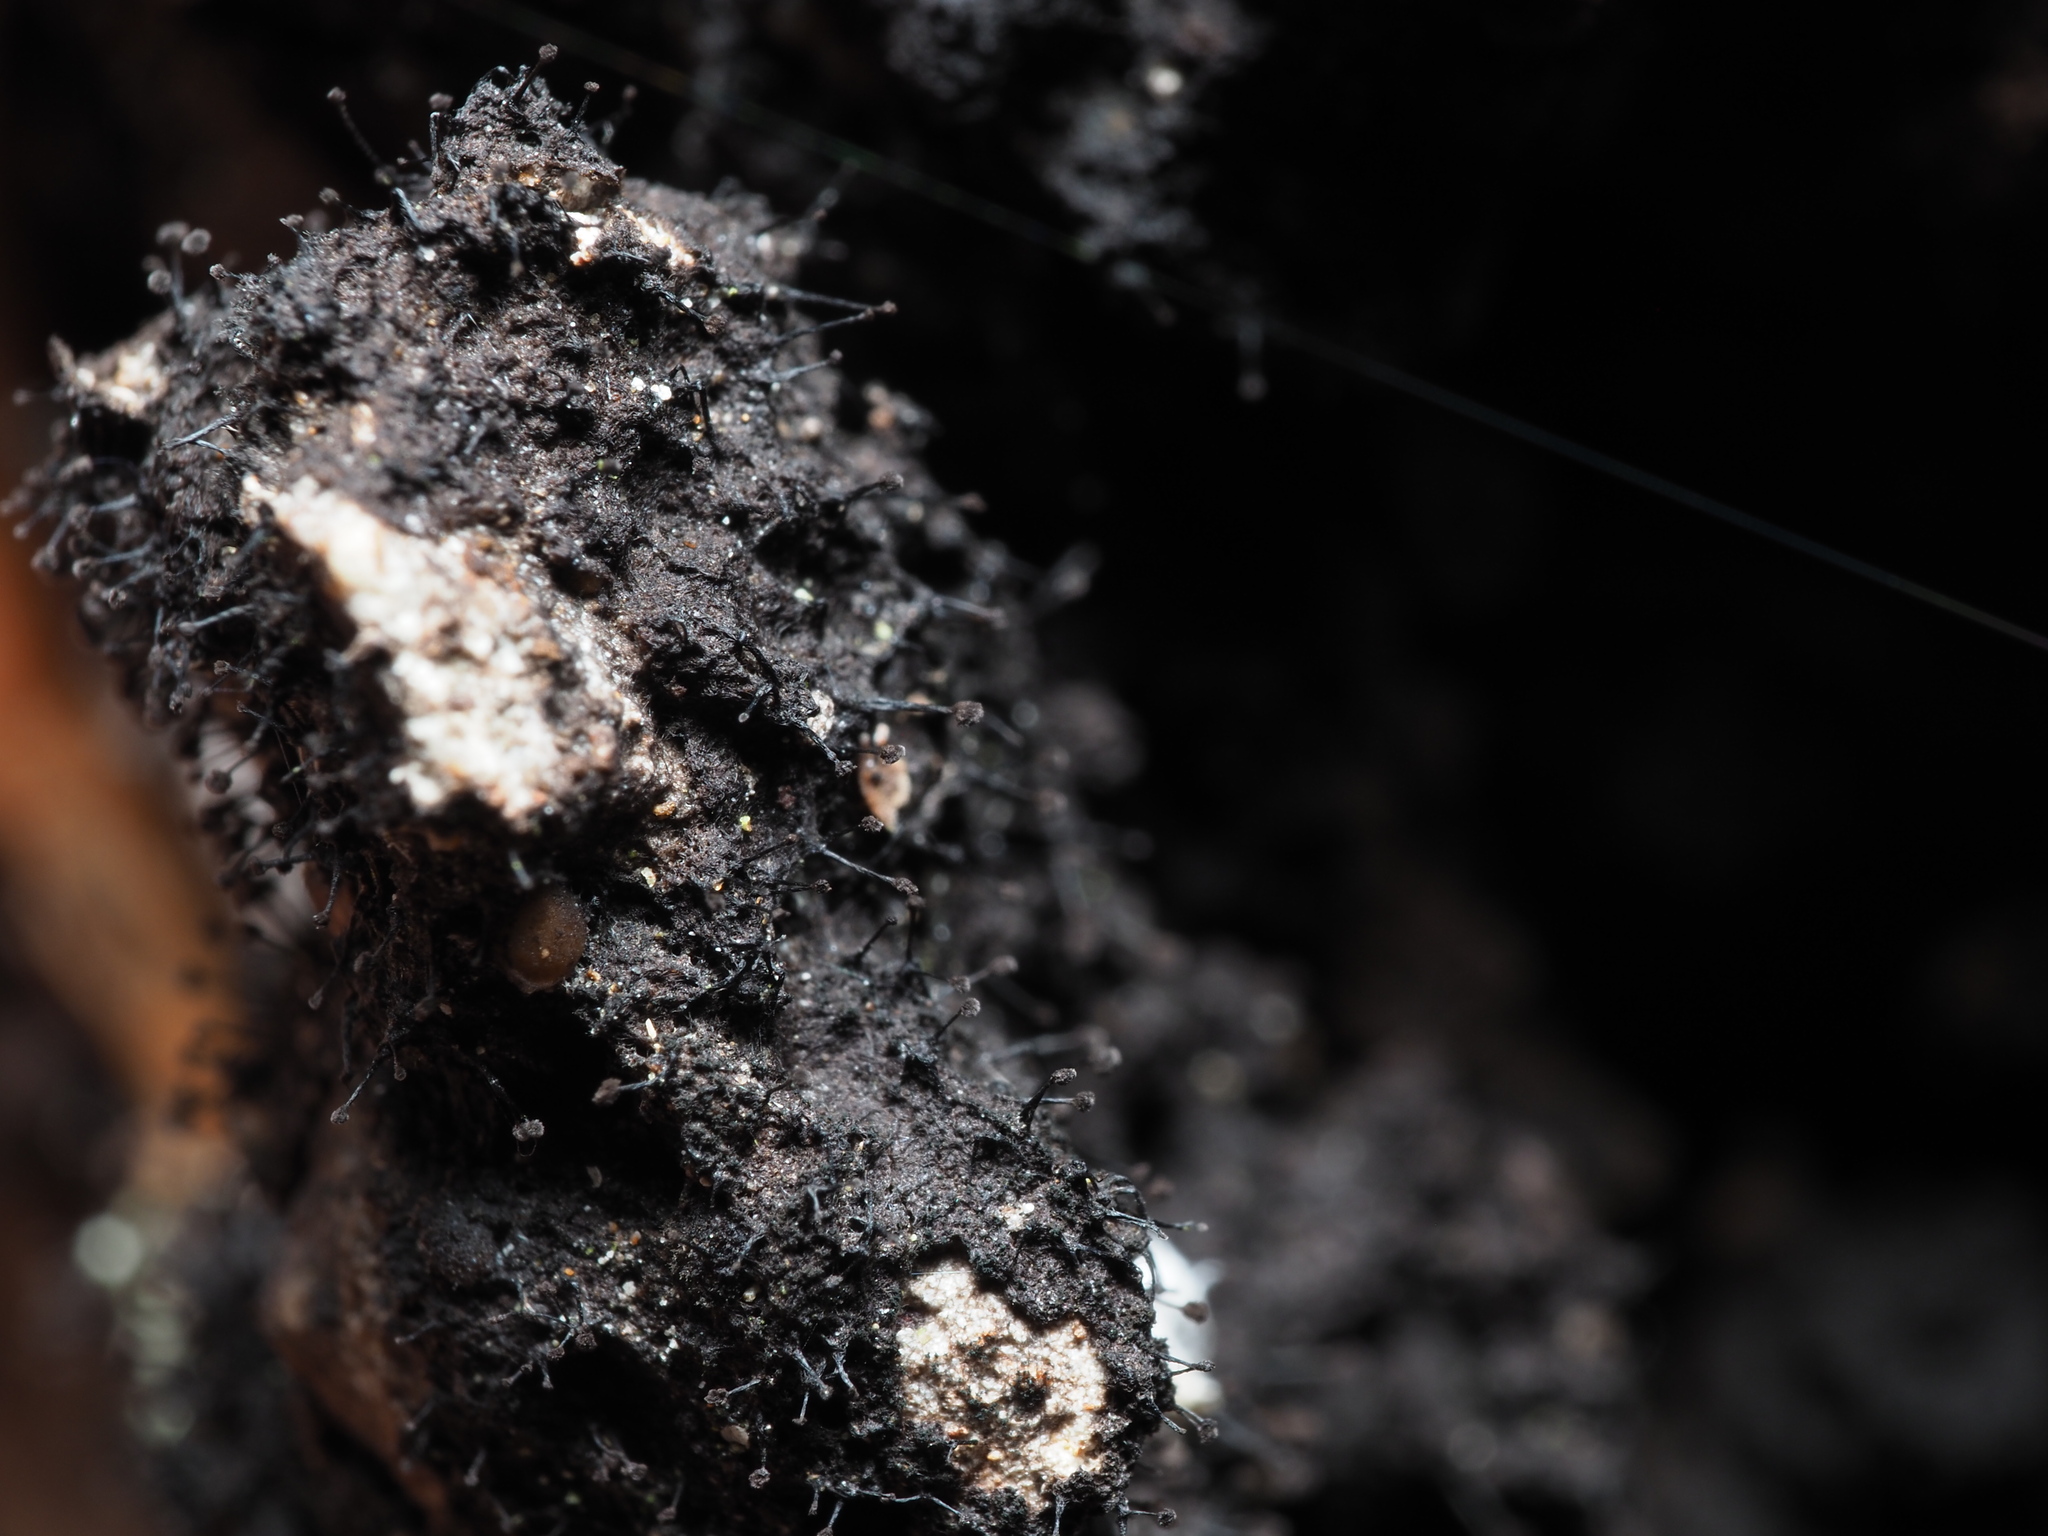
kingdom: Fungi
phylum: Ascomycota
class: Leotiomycetes
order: Helotiales
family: Amorphothecaceae
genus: Sorocybe
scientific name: Sorocybe resinae
